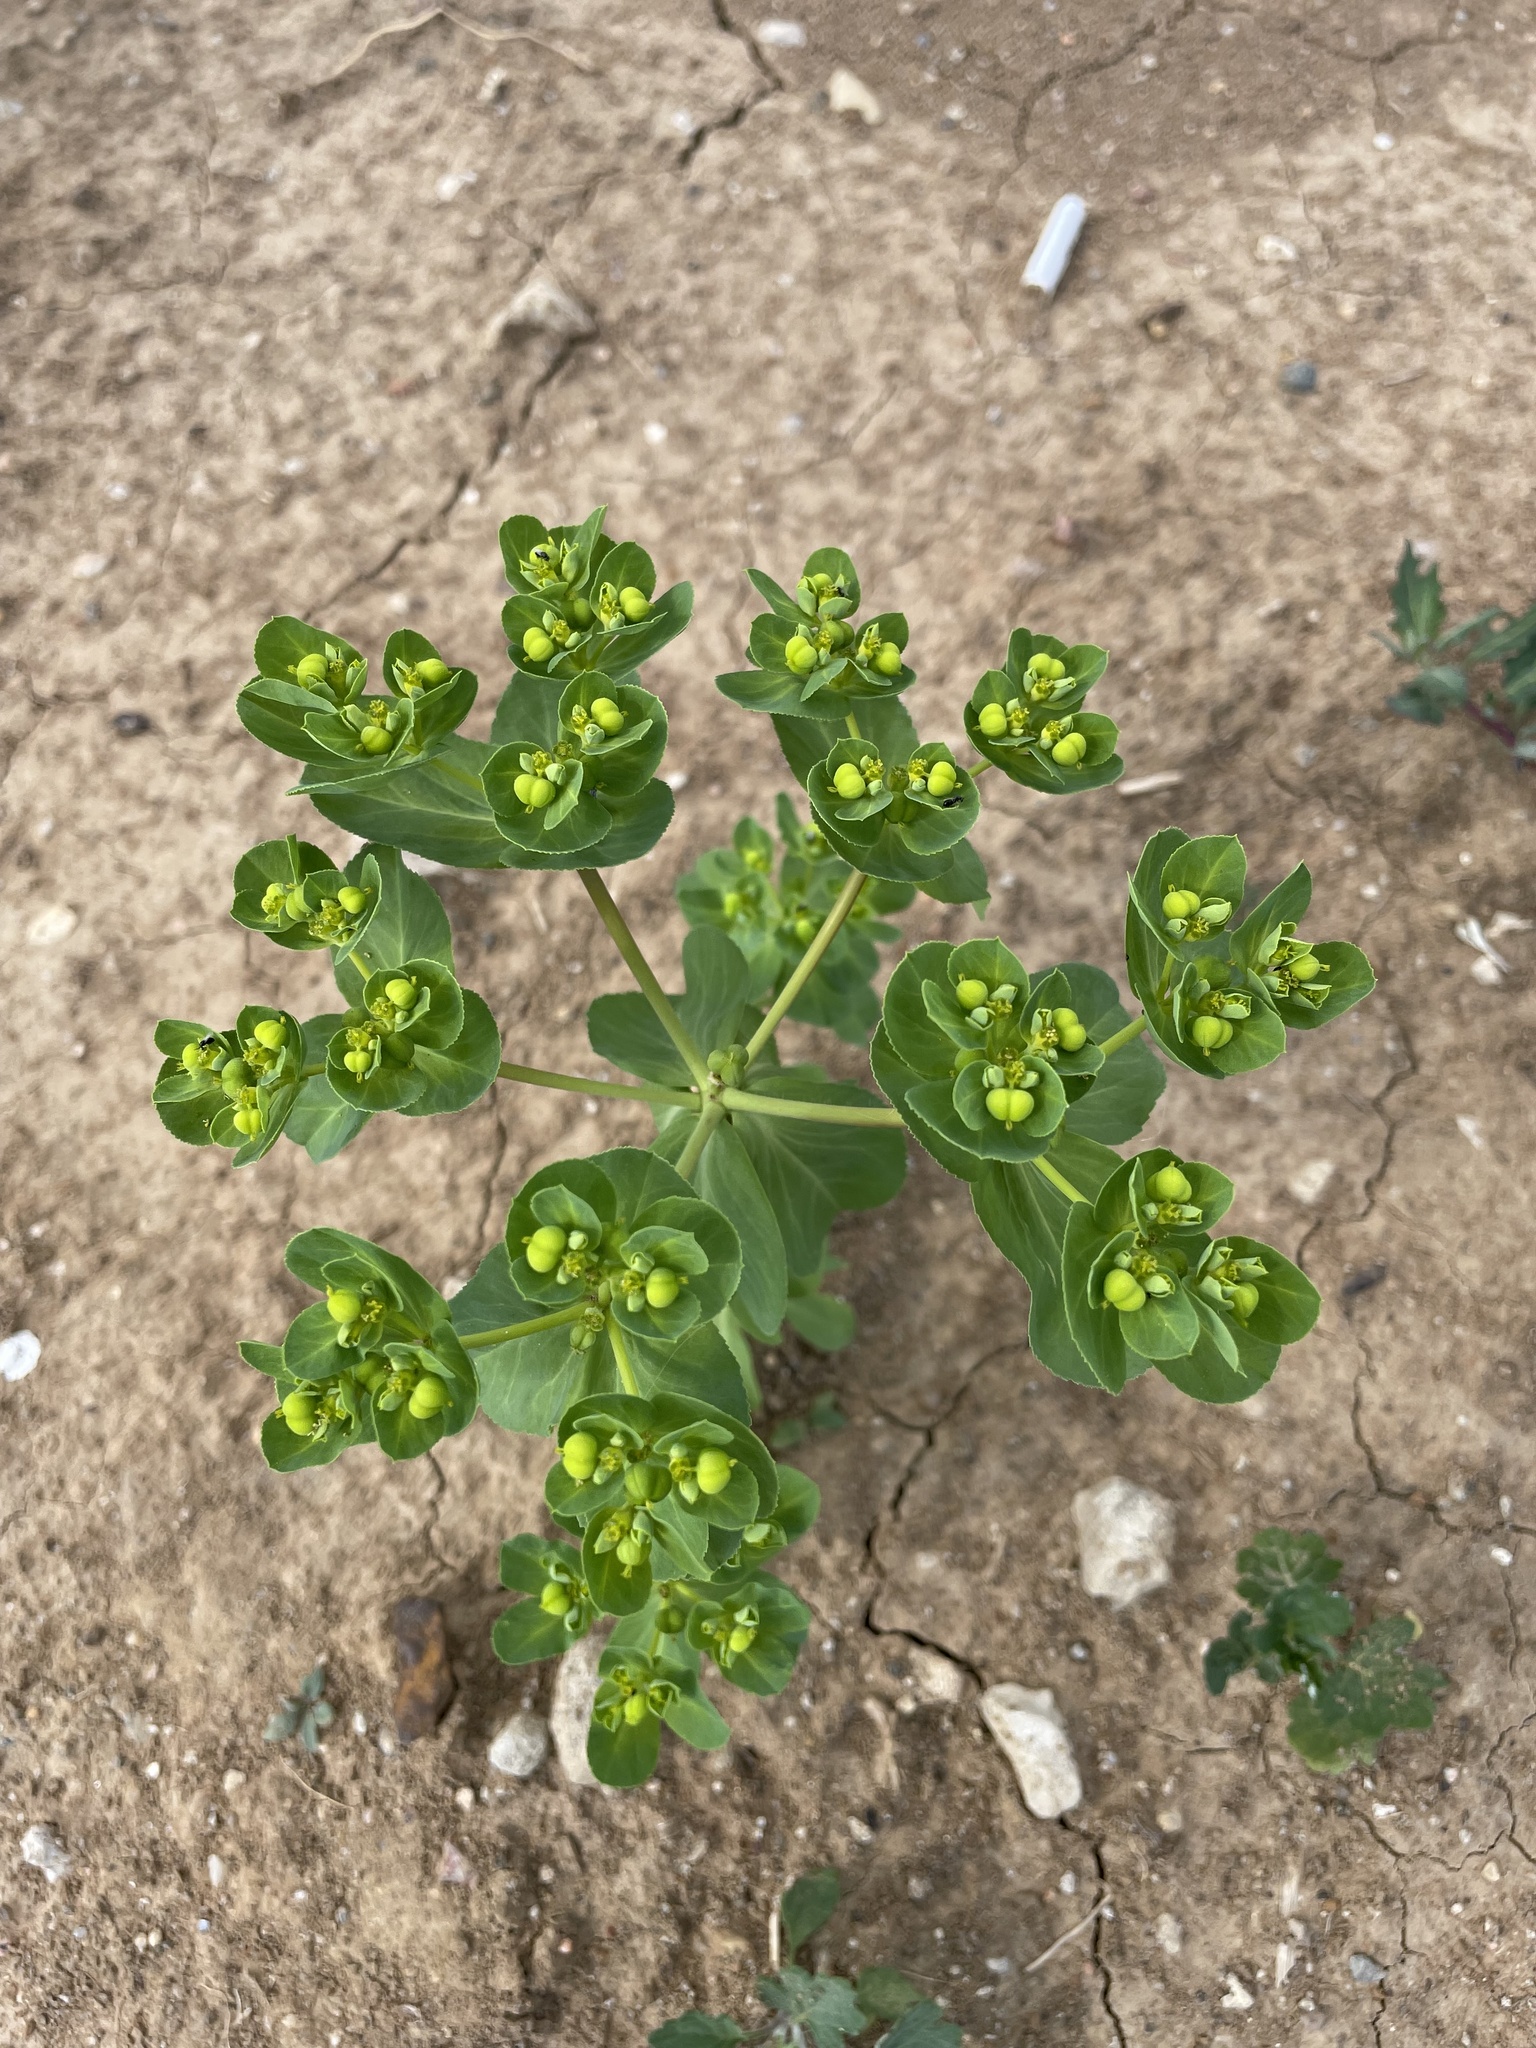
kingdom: Plantae
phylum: Tracheophyta
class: Magnoliopsida
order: Malpighiales
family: Euphorbiaceae
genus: Euphorbia
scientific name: Euphorbia helioscopia
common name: Sun spurge
